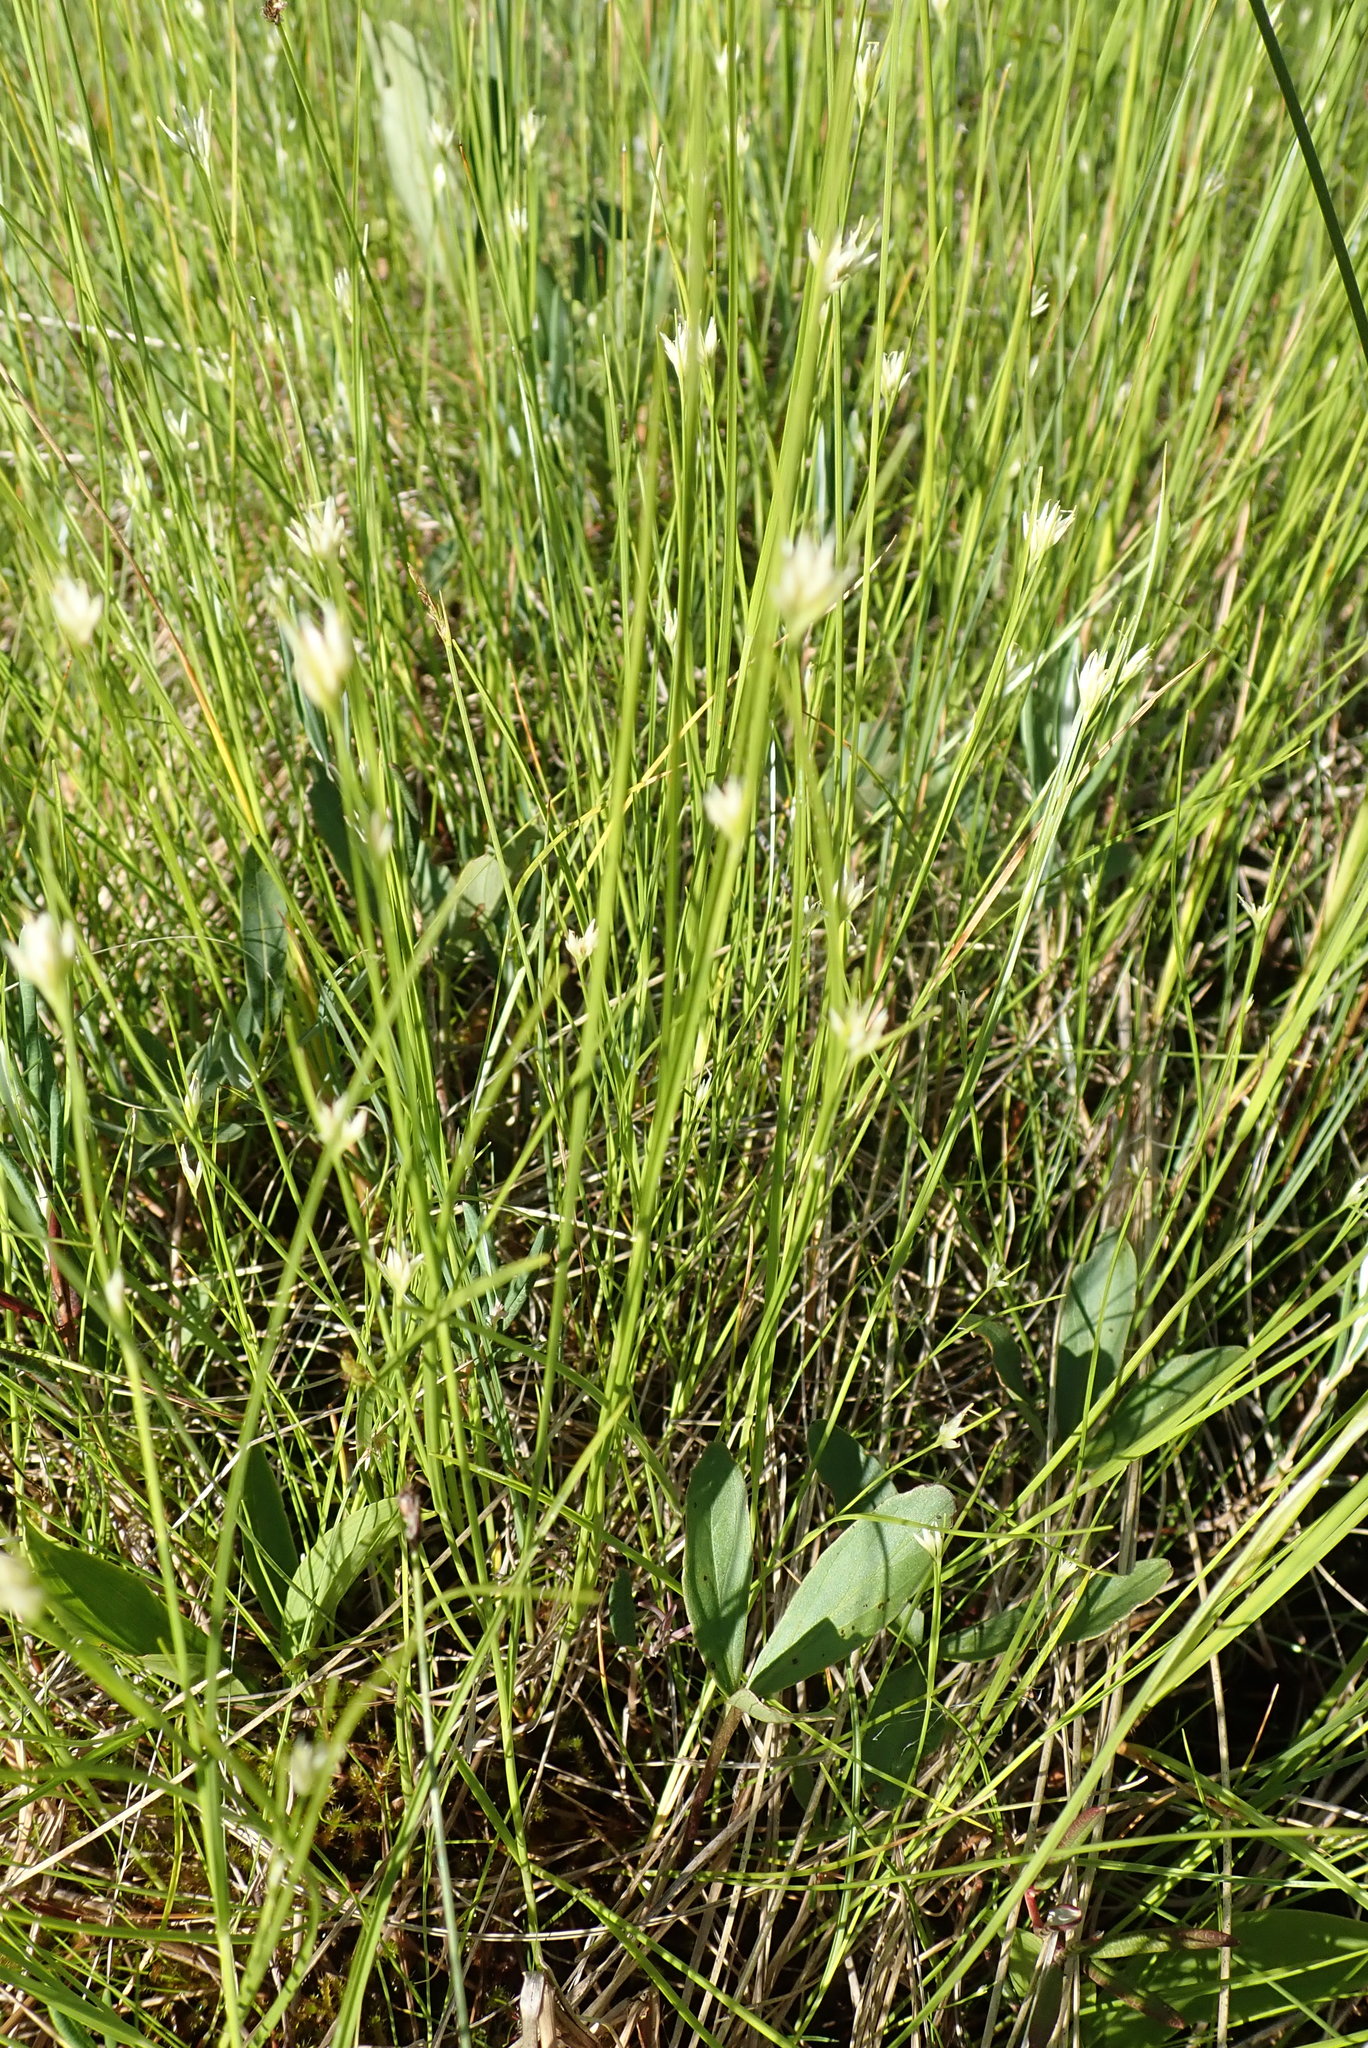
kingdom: Plantae
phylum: Tracheophyta
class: Liliopsida
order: Poales
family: Cyperaceae
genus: Rhynchospora
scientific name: Rhynchospora alba
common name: White beak-sedge
